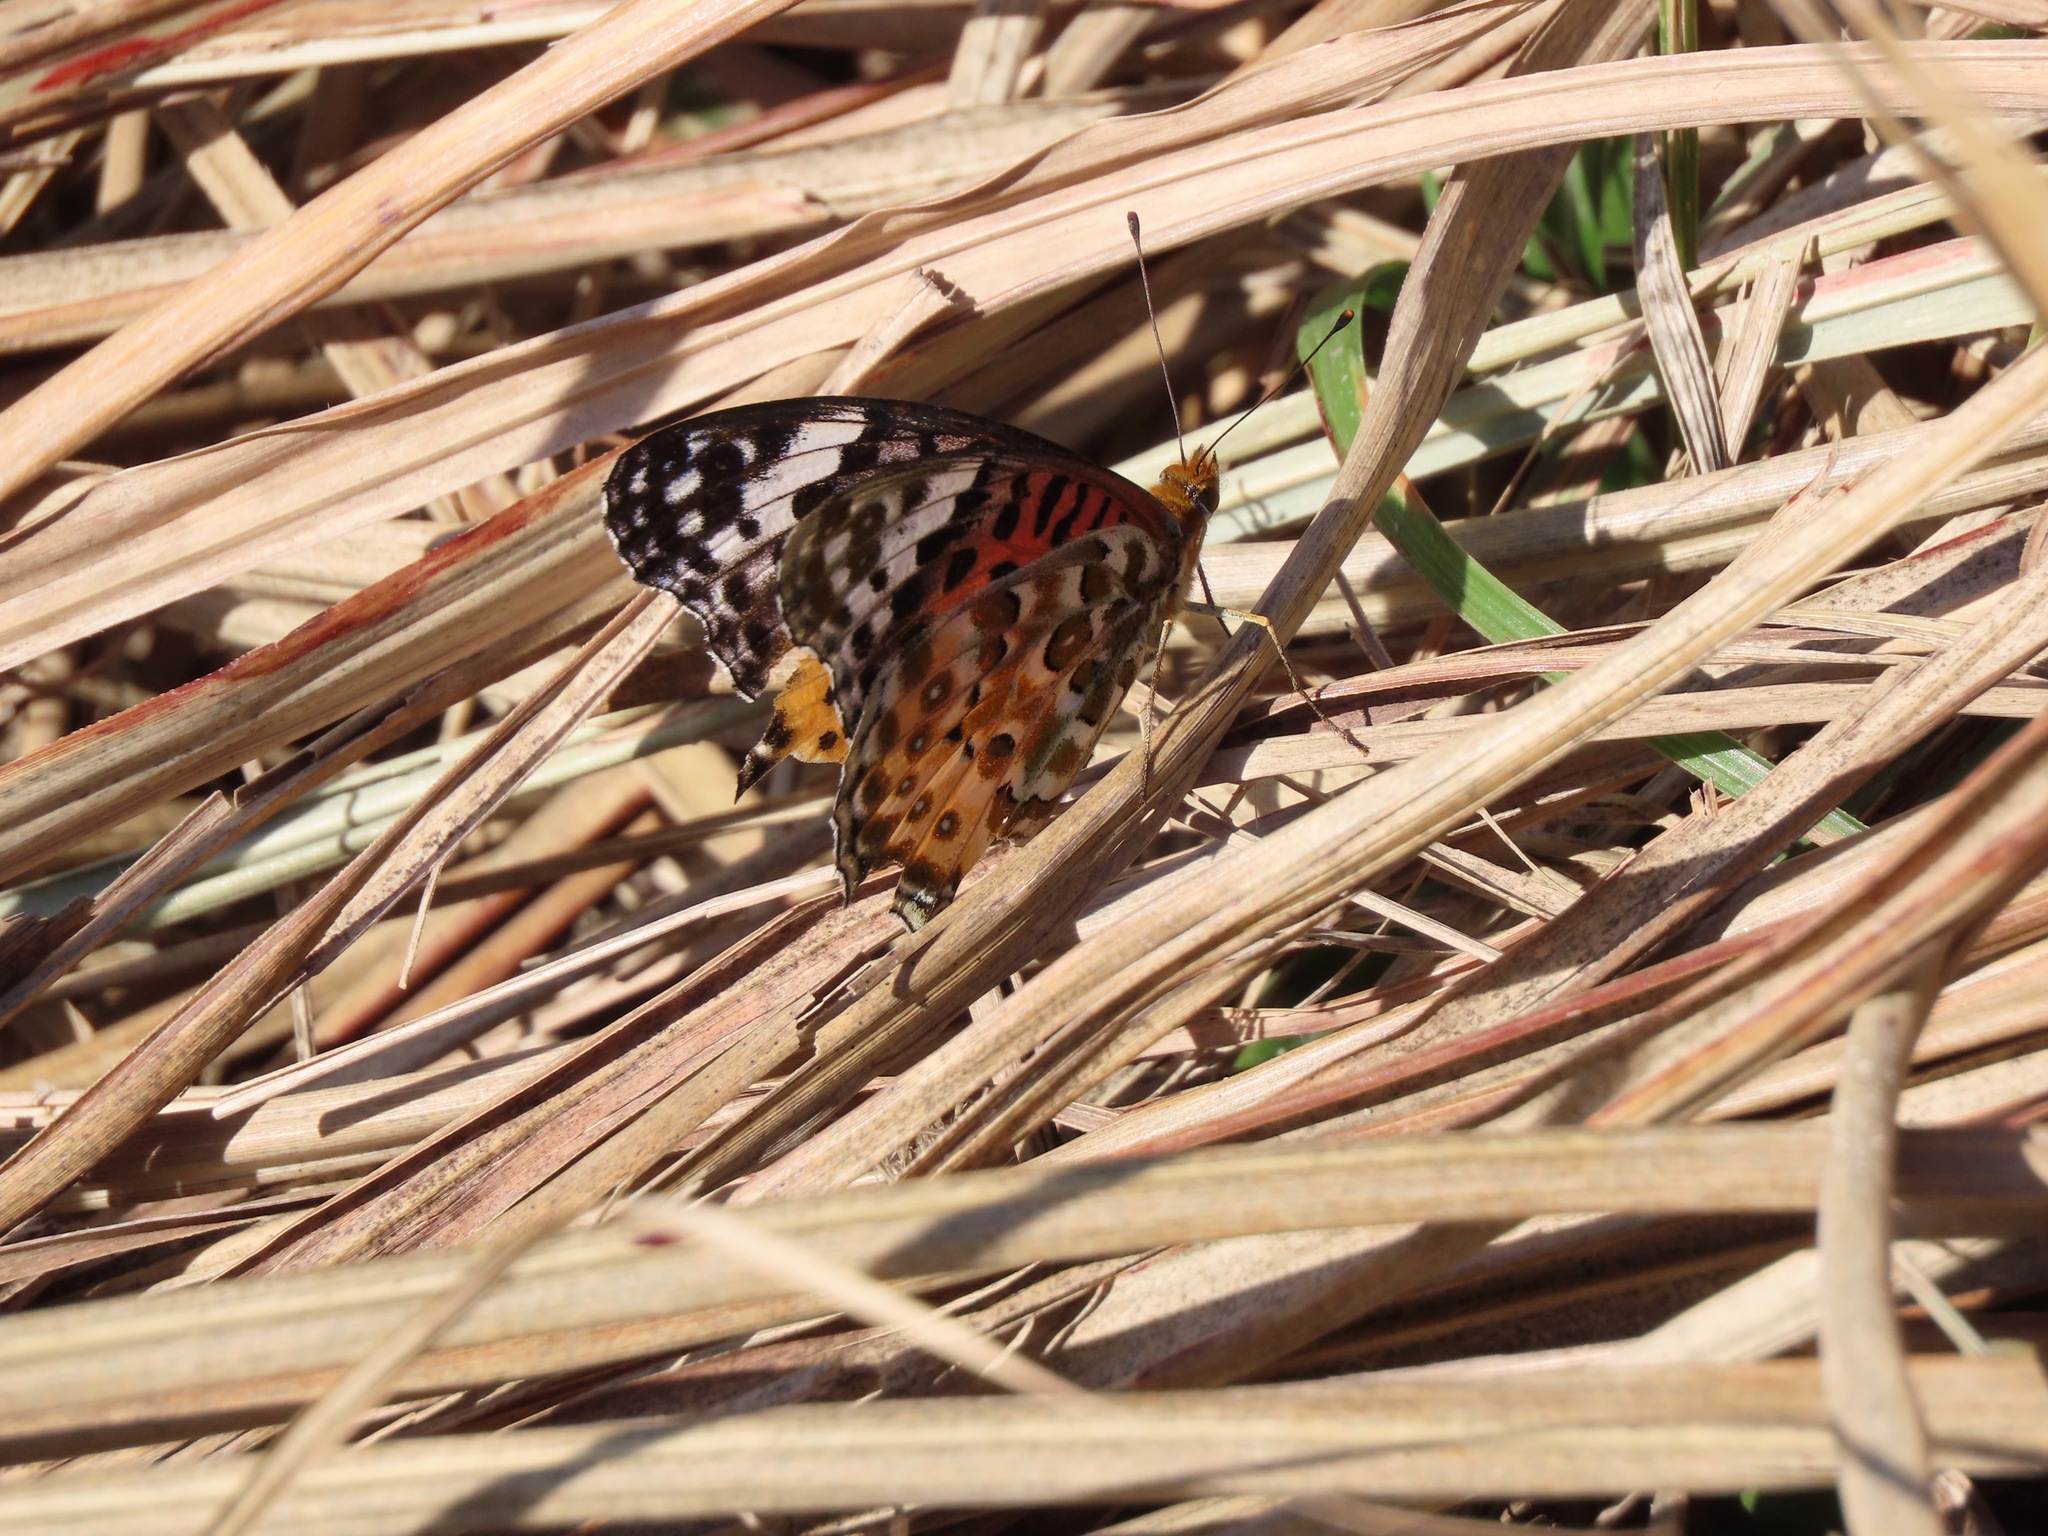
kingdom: Animalia
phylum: Arthropoda
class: Insecta
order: Lepidoptera
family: Nymphalidae
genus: Argynnis
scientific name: Argynnis hyperbius
